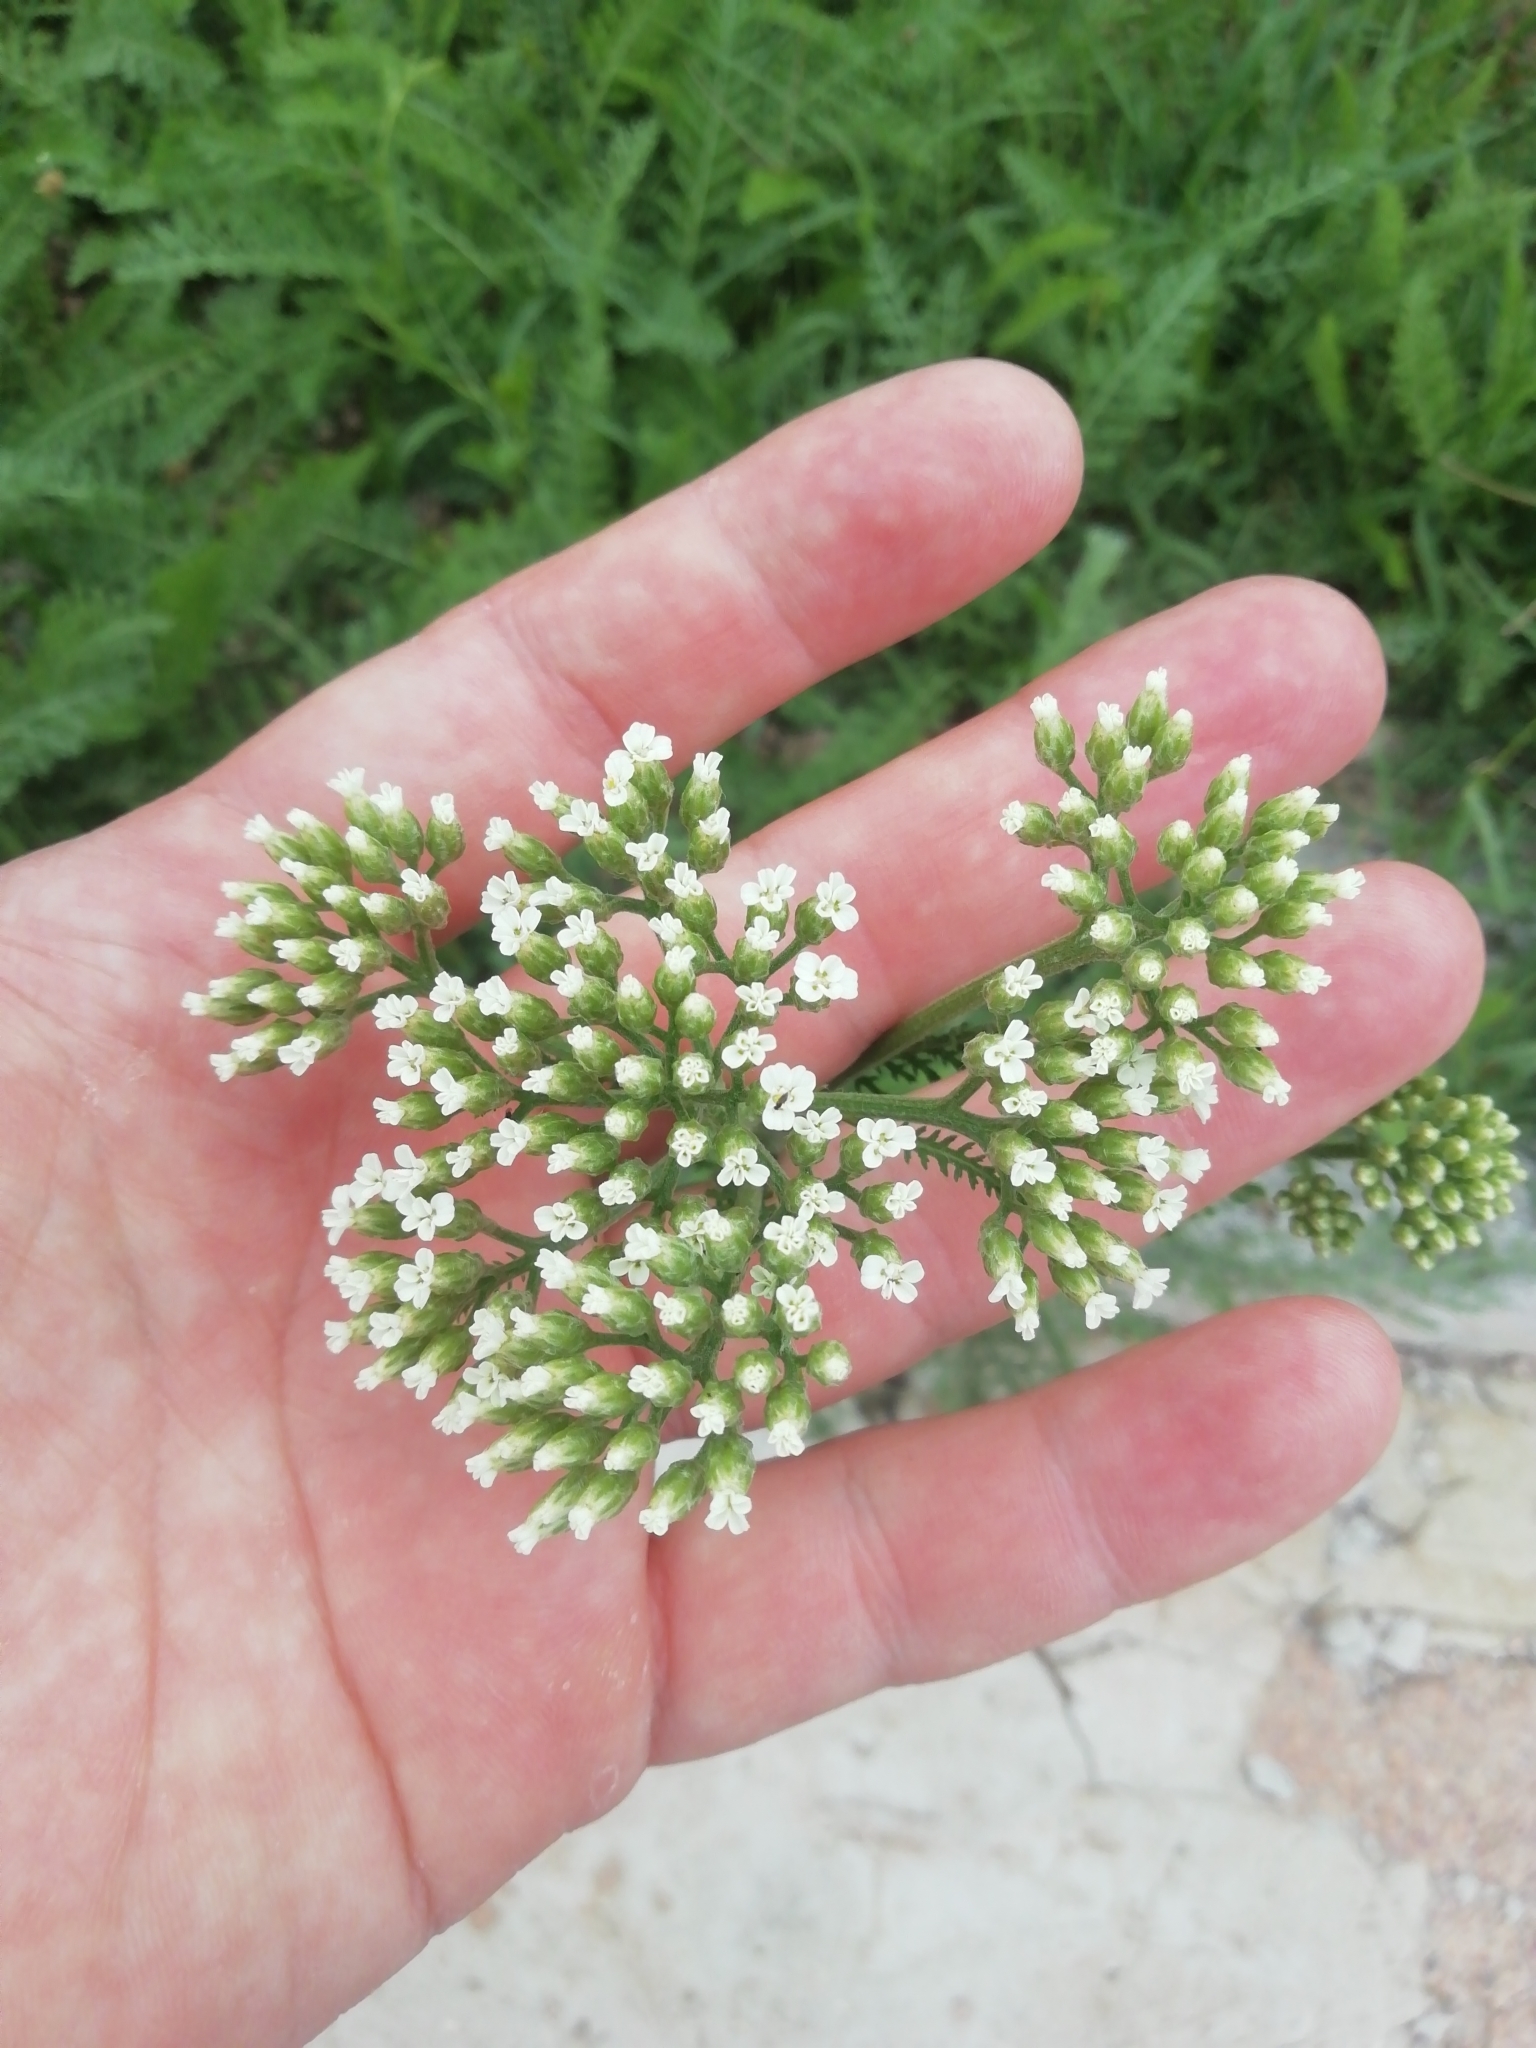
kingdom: Plantae
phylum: Tracheophyta
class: Magnoliopsida
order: Asterales
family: Asteraceae
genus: Achillea
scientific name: Achillea setacea
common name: Bristly yarrow
